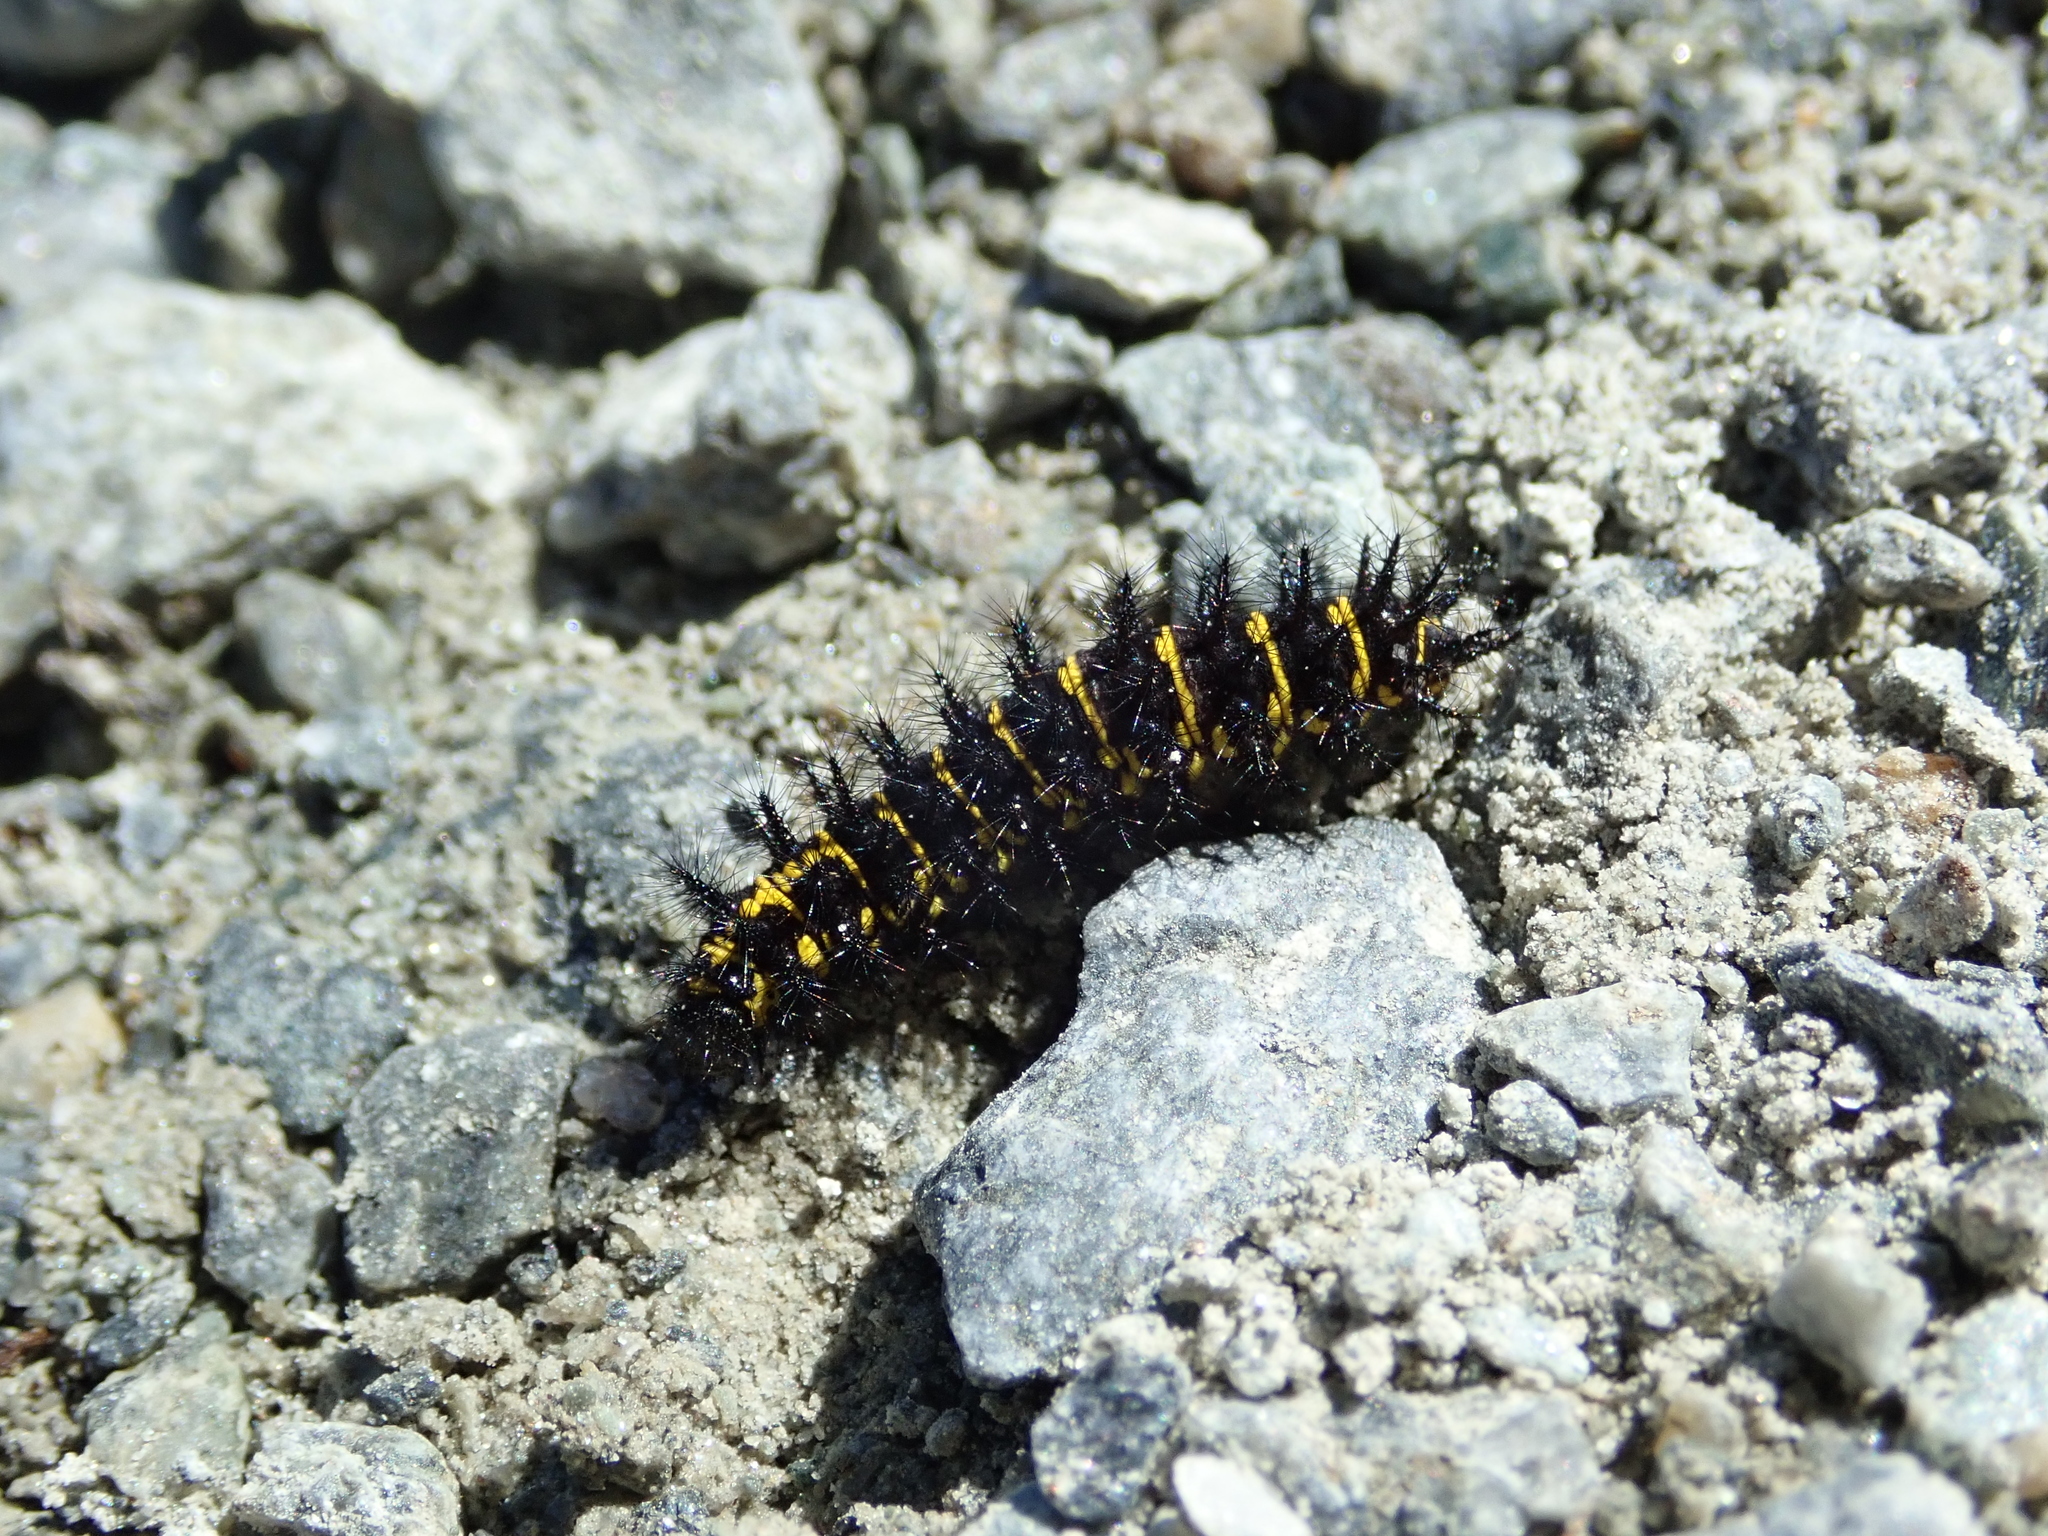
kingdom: Animalia
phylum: Arthropoda
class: Insecta
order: Lepidoptera
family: Nymphalidae
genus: Hypodryas
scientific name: Hypodryas cynthia
